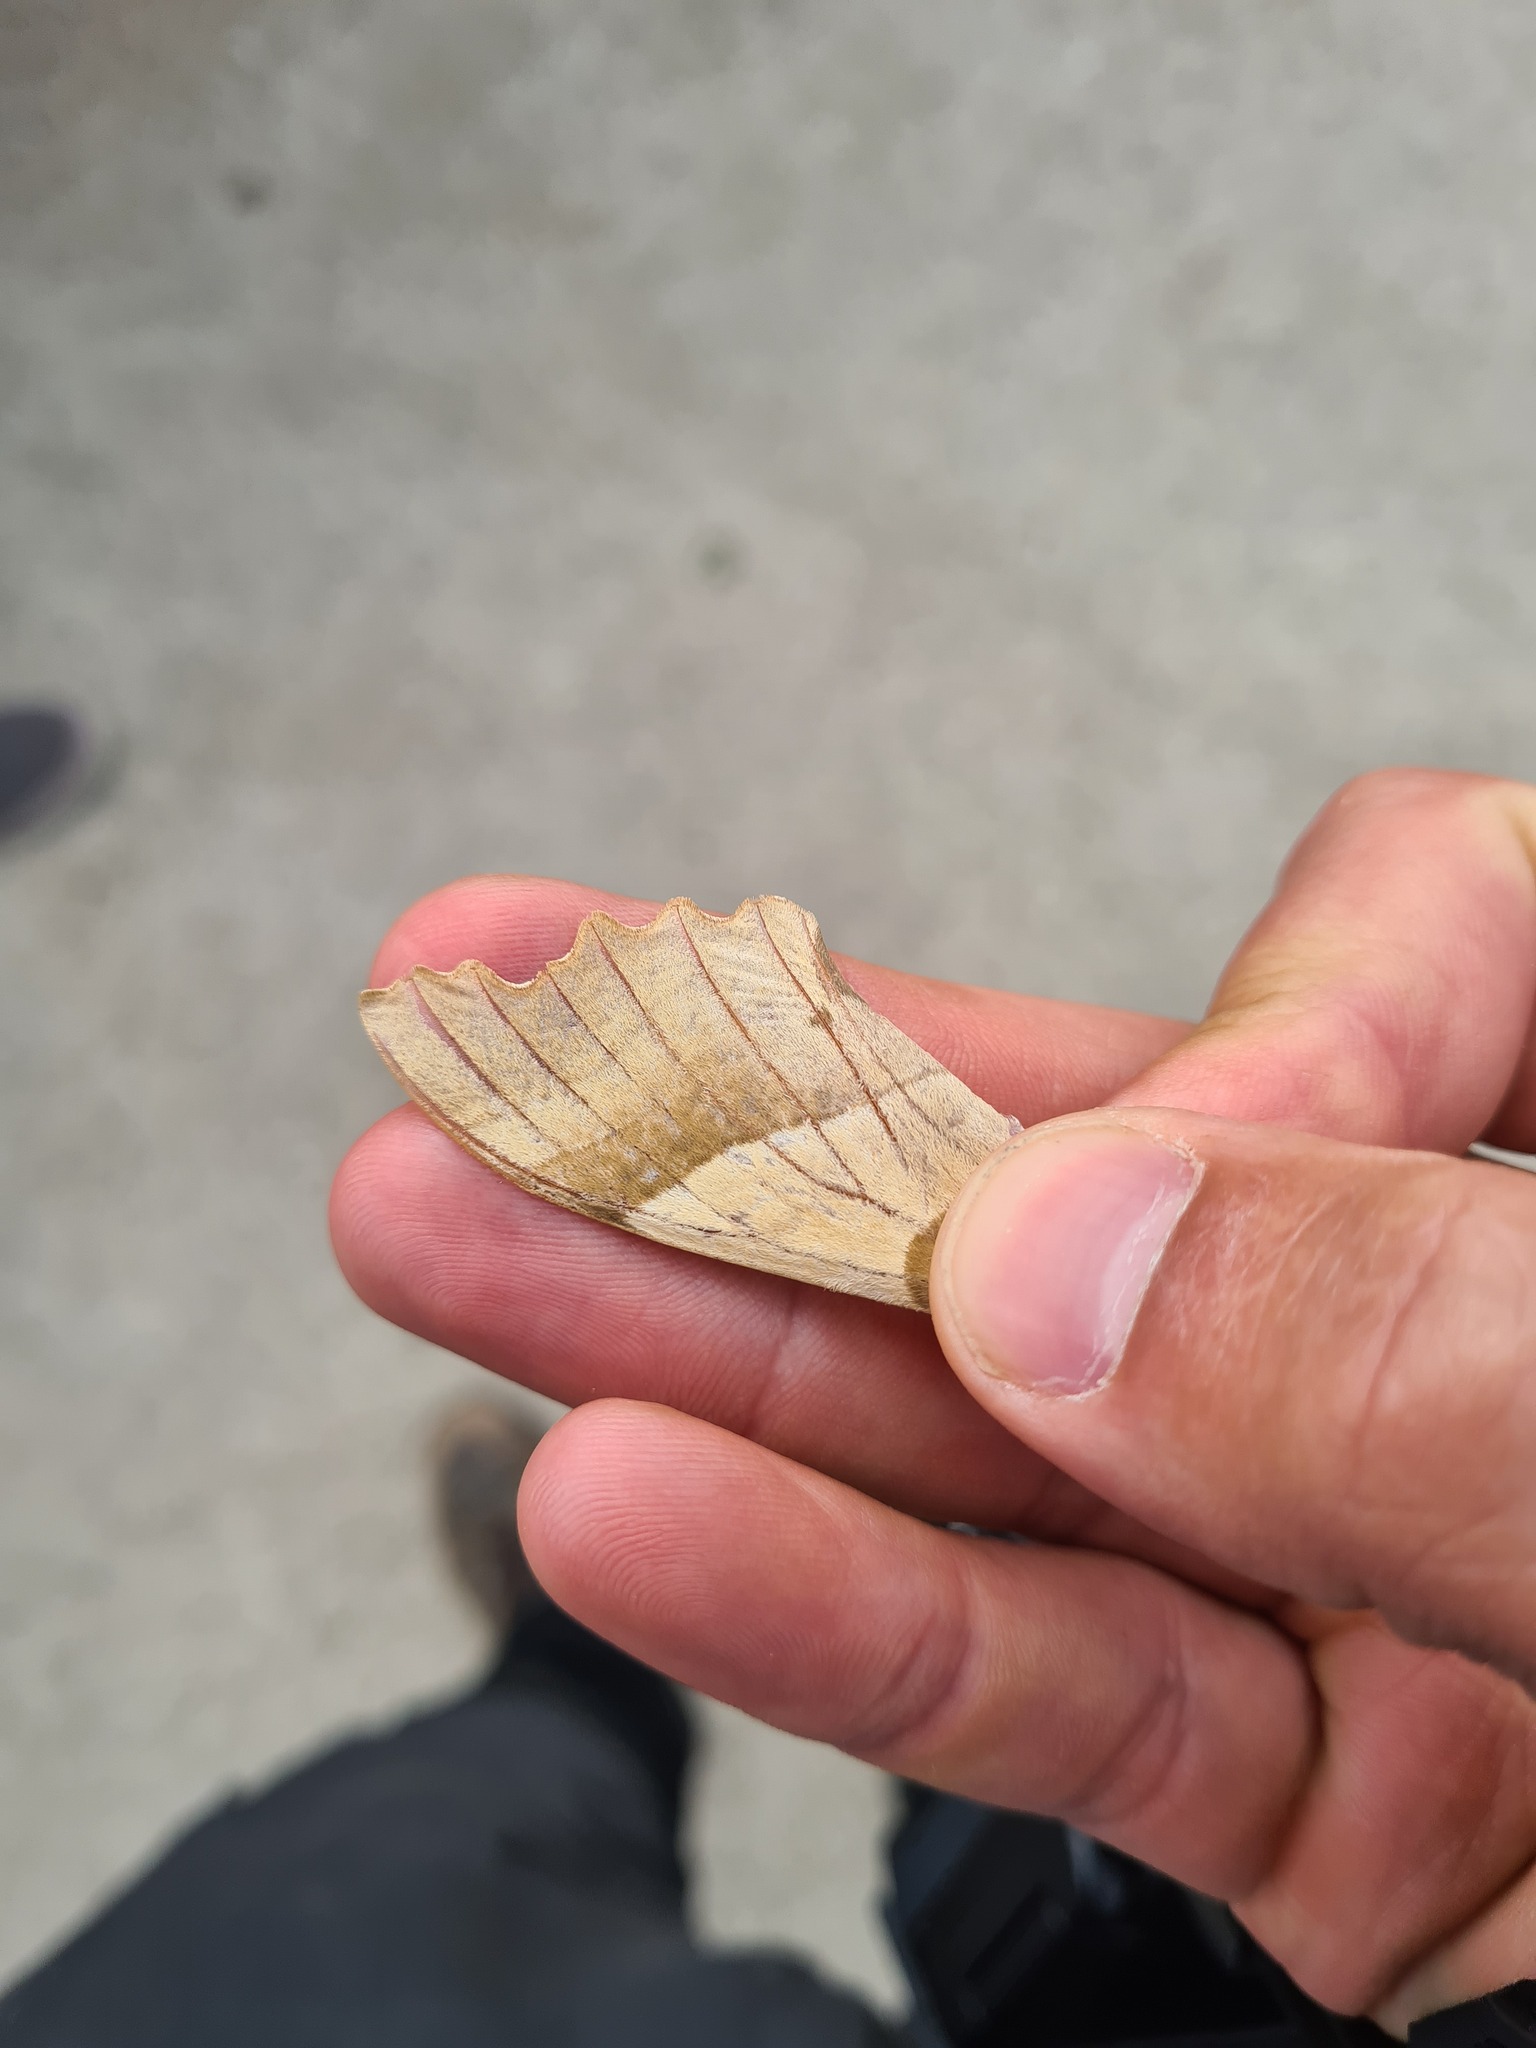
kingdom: Animalia
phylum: Arthropoda
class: Insecta
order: Lepidoptera
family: Sphingidae
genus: Marumba
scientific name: Marumba quercus
